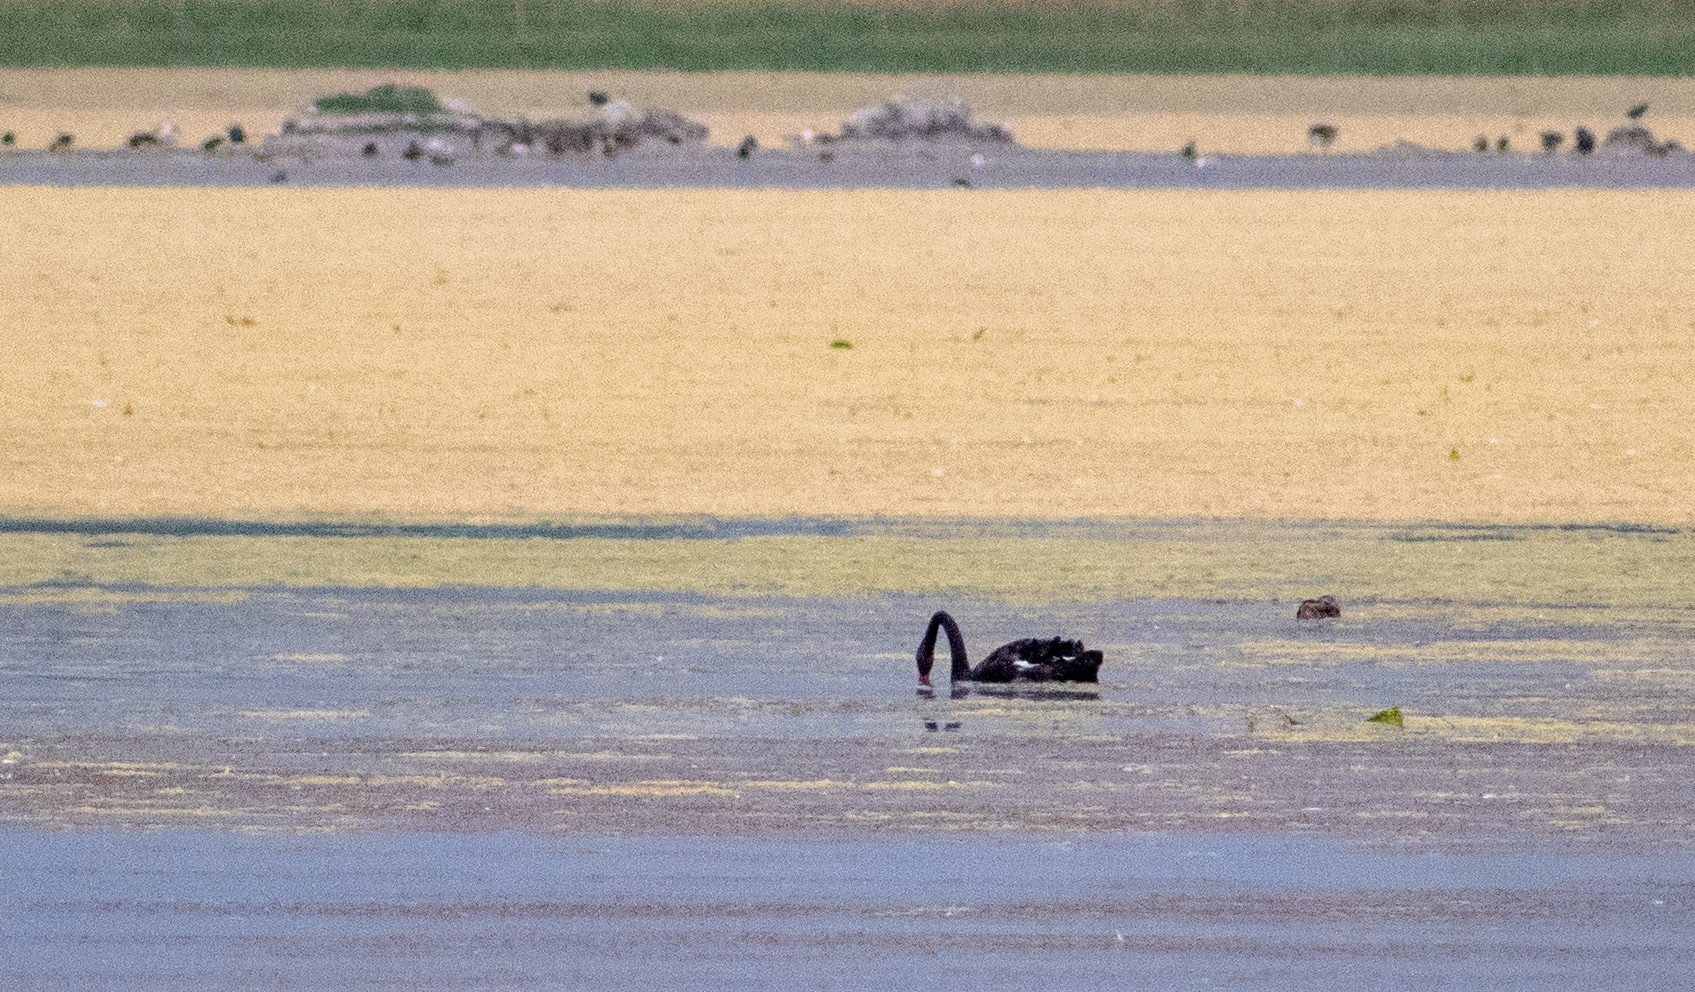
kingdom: Animalia
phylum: Chordata
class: Aves
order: Anseriformes
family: Anatidae
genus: Cygnus
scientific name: Cygnus atratus
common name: Black swan
